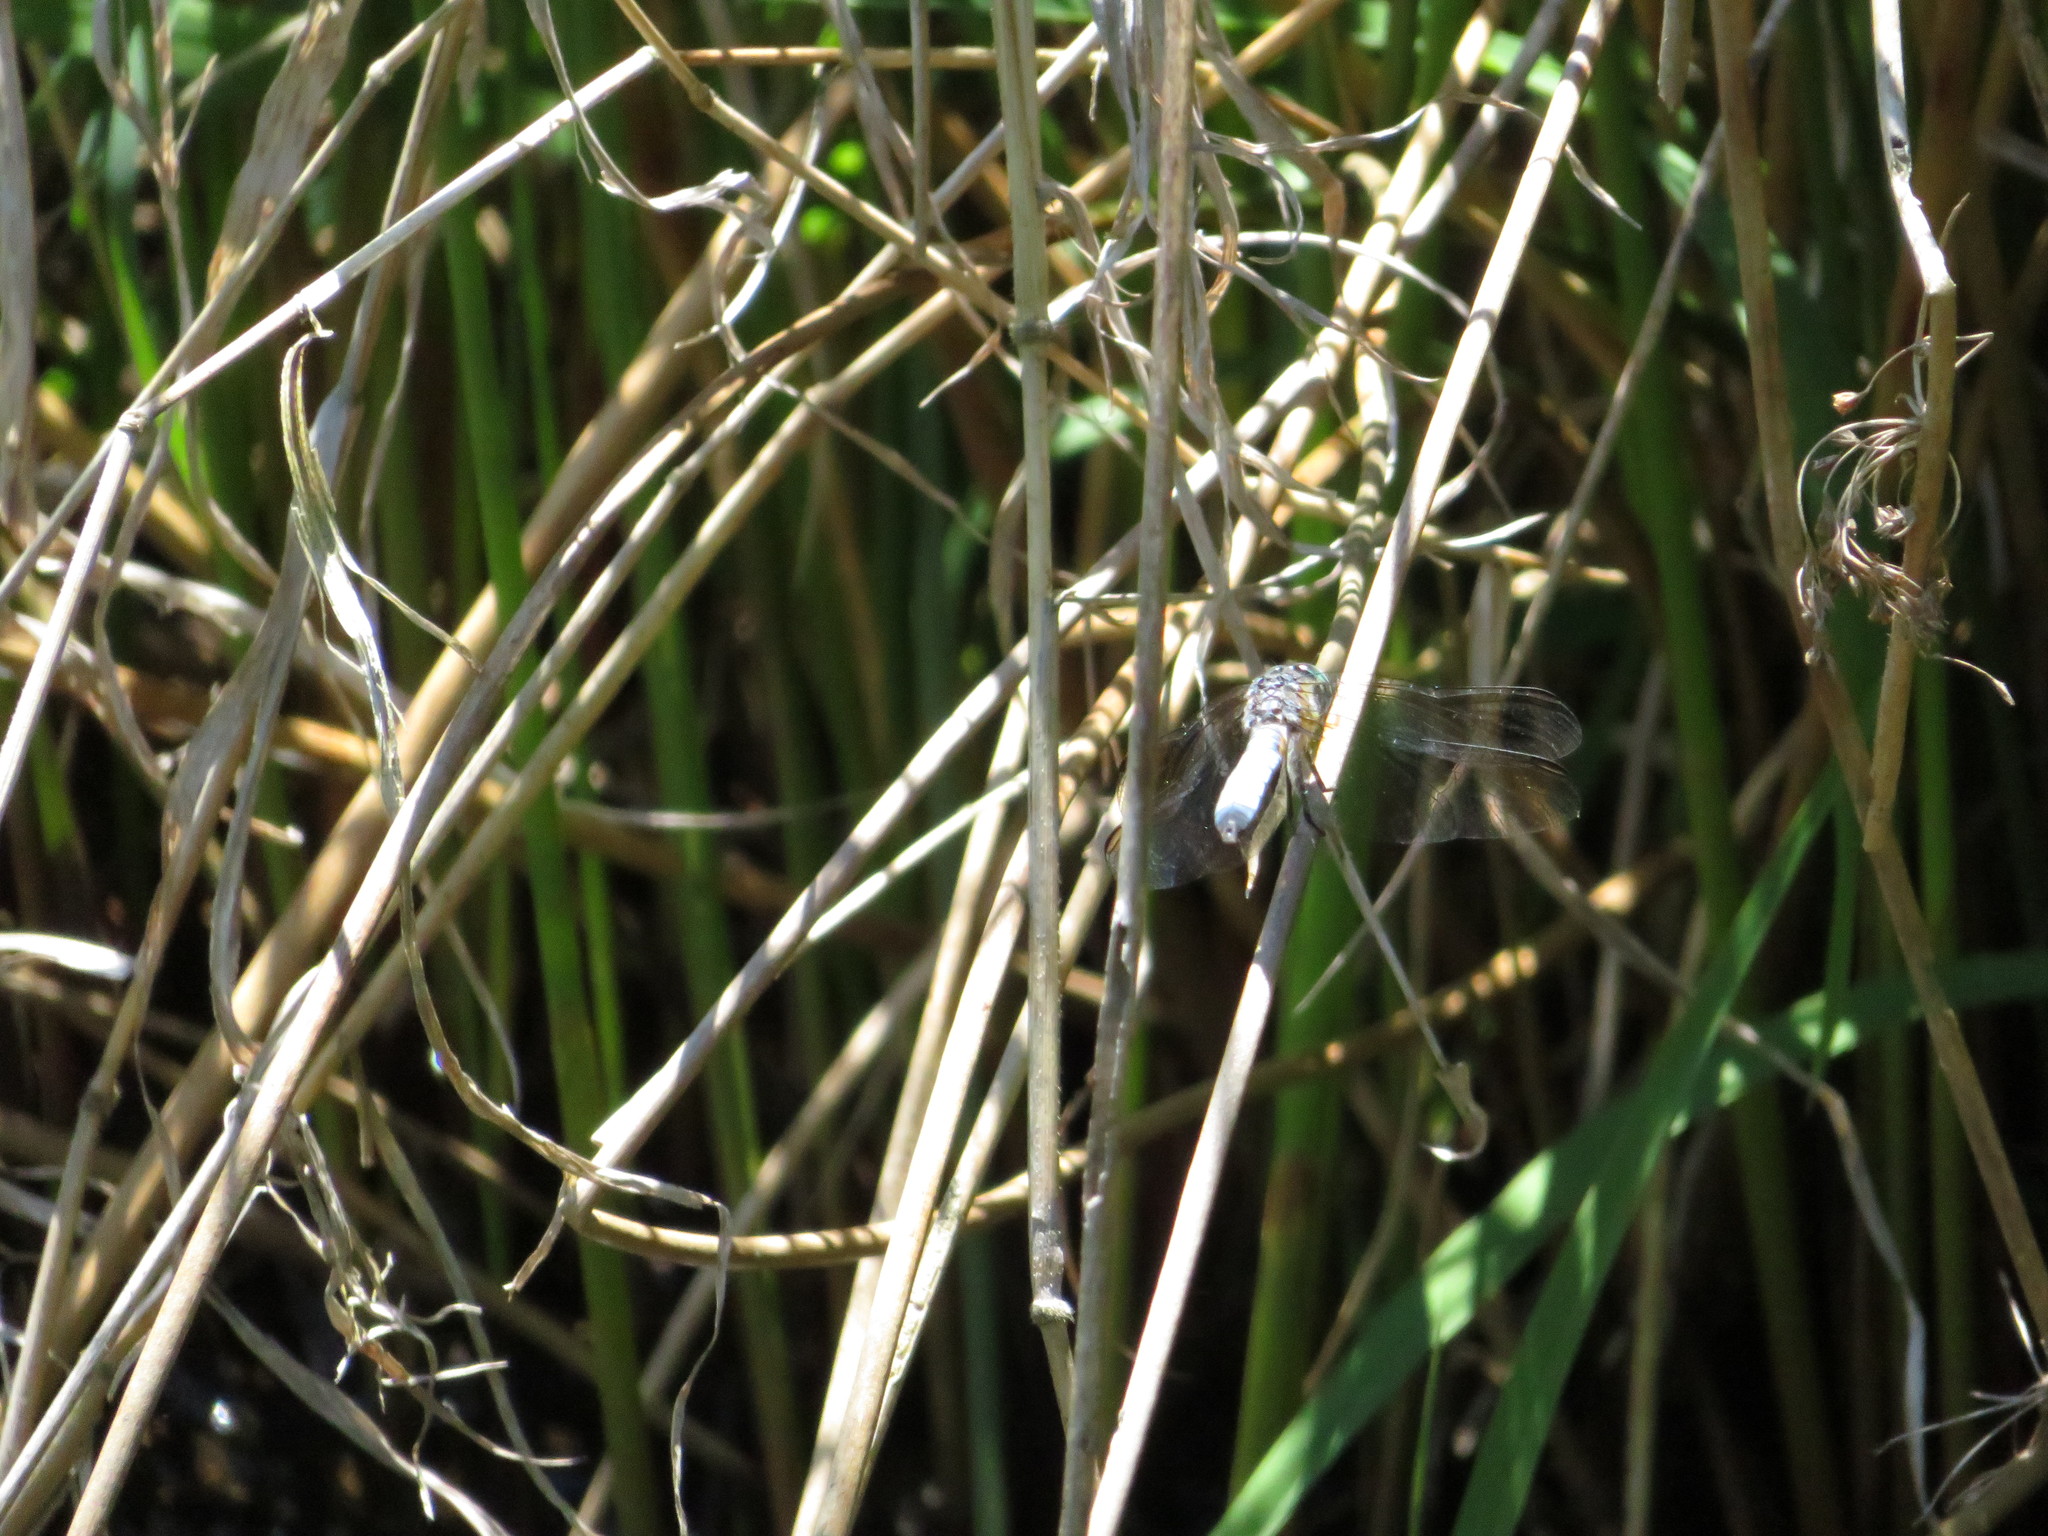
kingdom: Animalia
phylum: Arthropoda
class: Insecta
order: Odonata
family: Libellulidae
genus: Pachydiplax
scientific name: Pachydiplax longipennis
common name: Blue dasher
